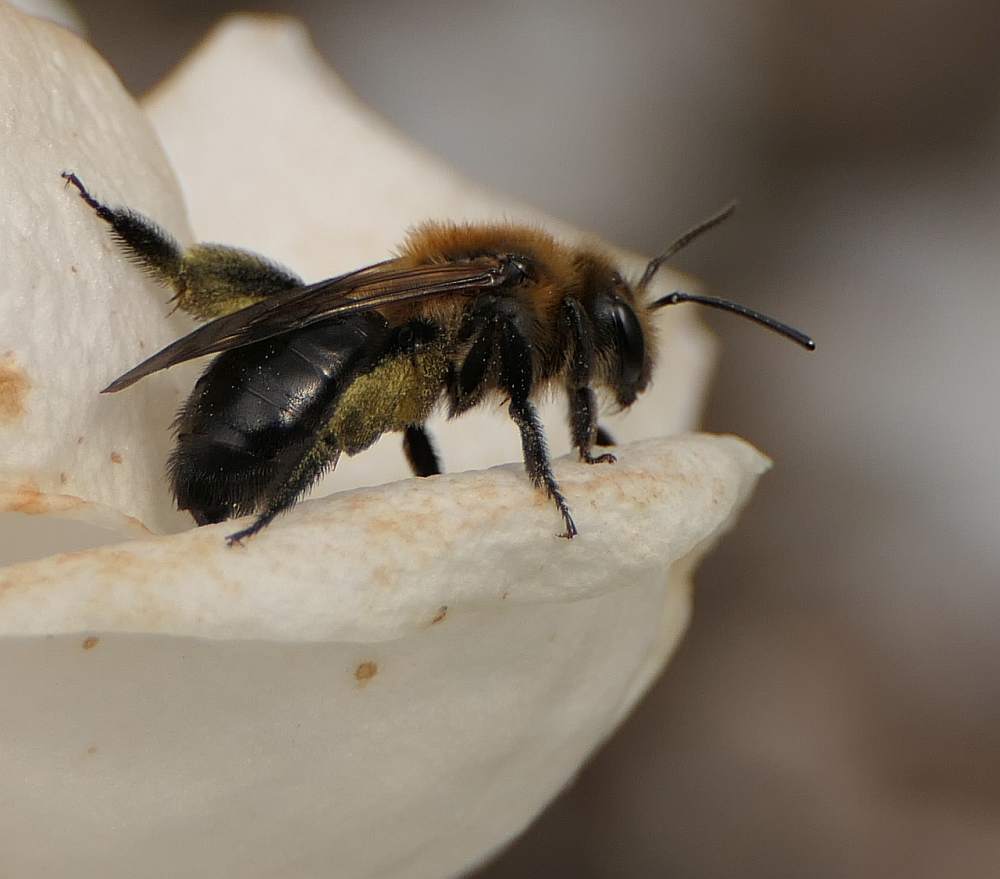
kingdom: Animalia
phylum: Arthropoda
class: Insecta
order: Hymenoptera
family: Andrenidae
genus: Andrena
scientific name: Andrena dunningi
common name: Dunning's miner
